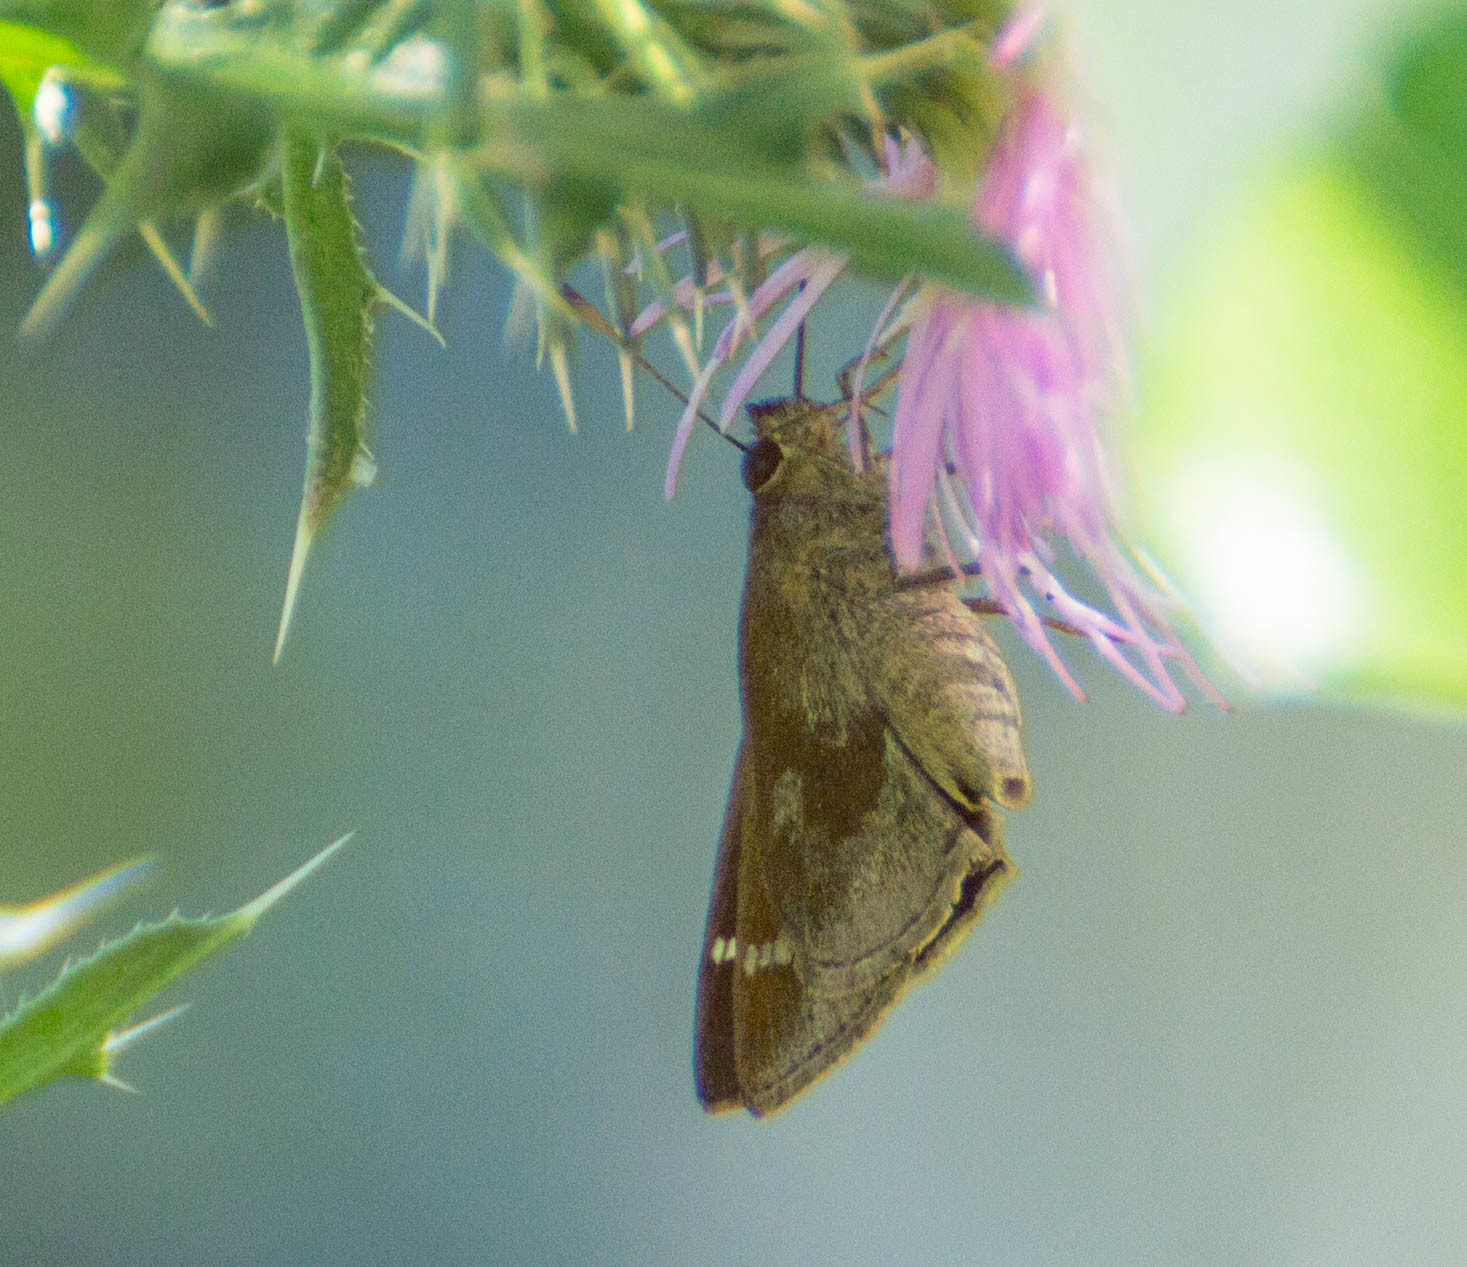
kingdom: Animalia
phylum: Arthropoda
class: Insecta
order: Lepidoptera
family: Hesperiidae
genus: Cymaenes
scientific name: Cymaenes
